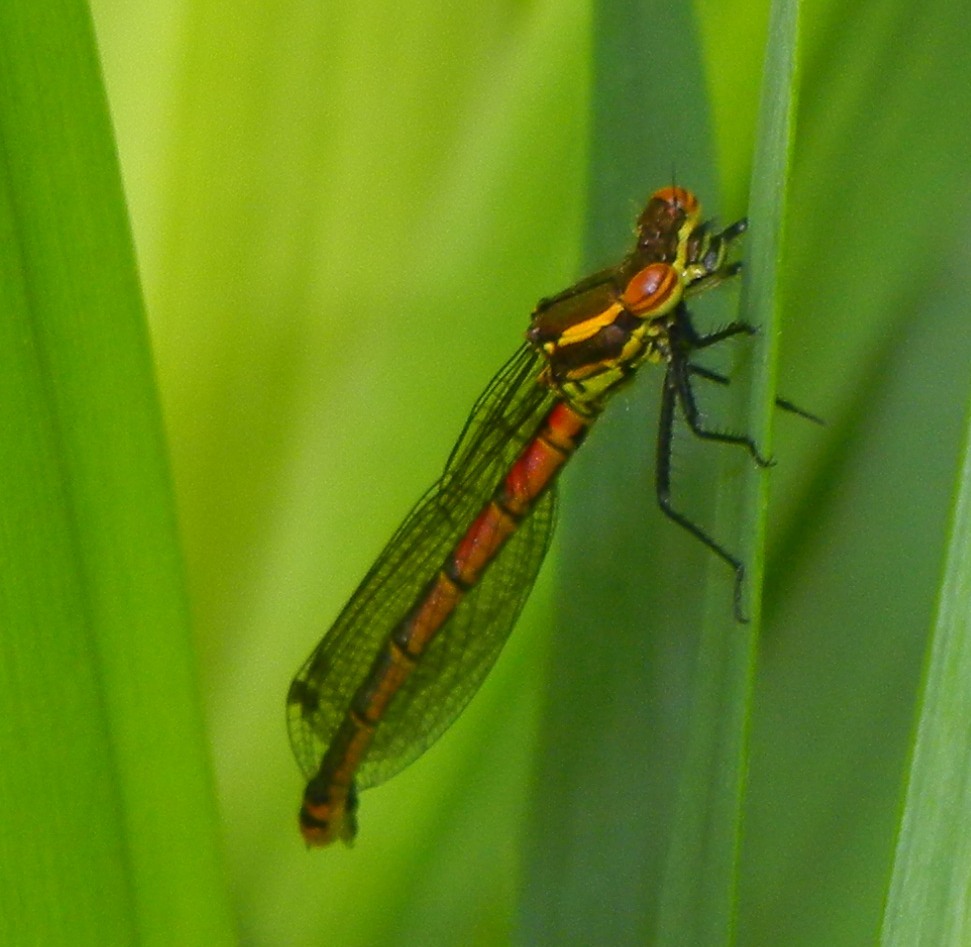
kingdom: Animalia
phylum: Arthropoda
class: Insecta
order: Odonata
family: Coenagrionidae
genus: Pyrrhosoma
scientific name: Pyrrhosoma nymphula
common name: Large red damsel
